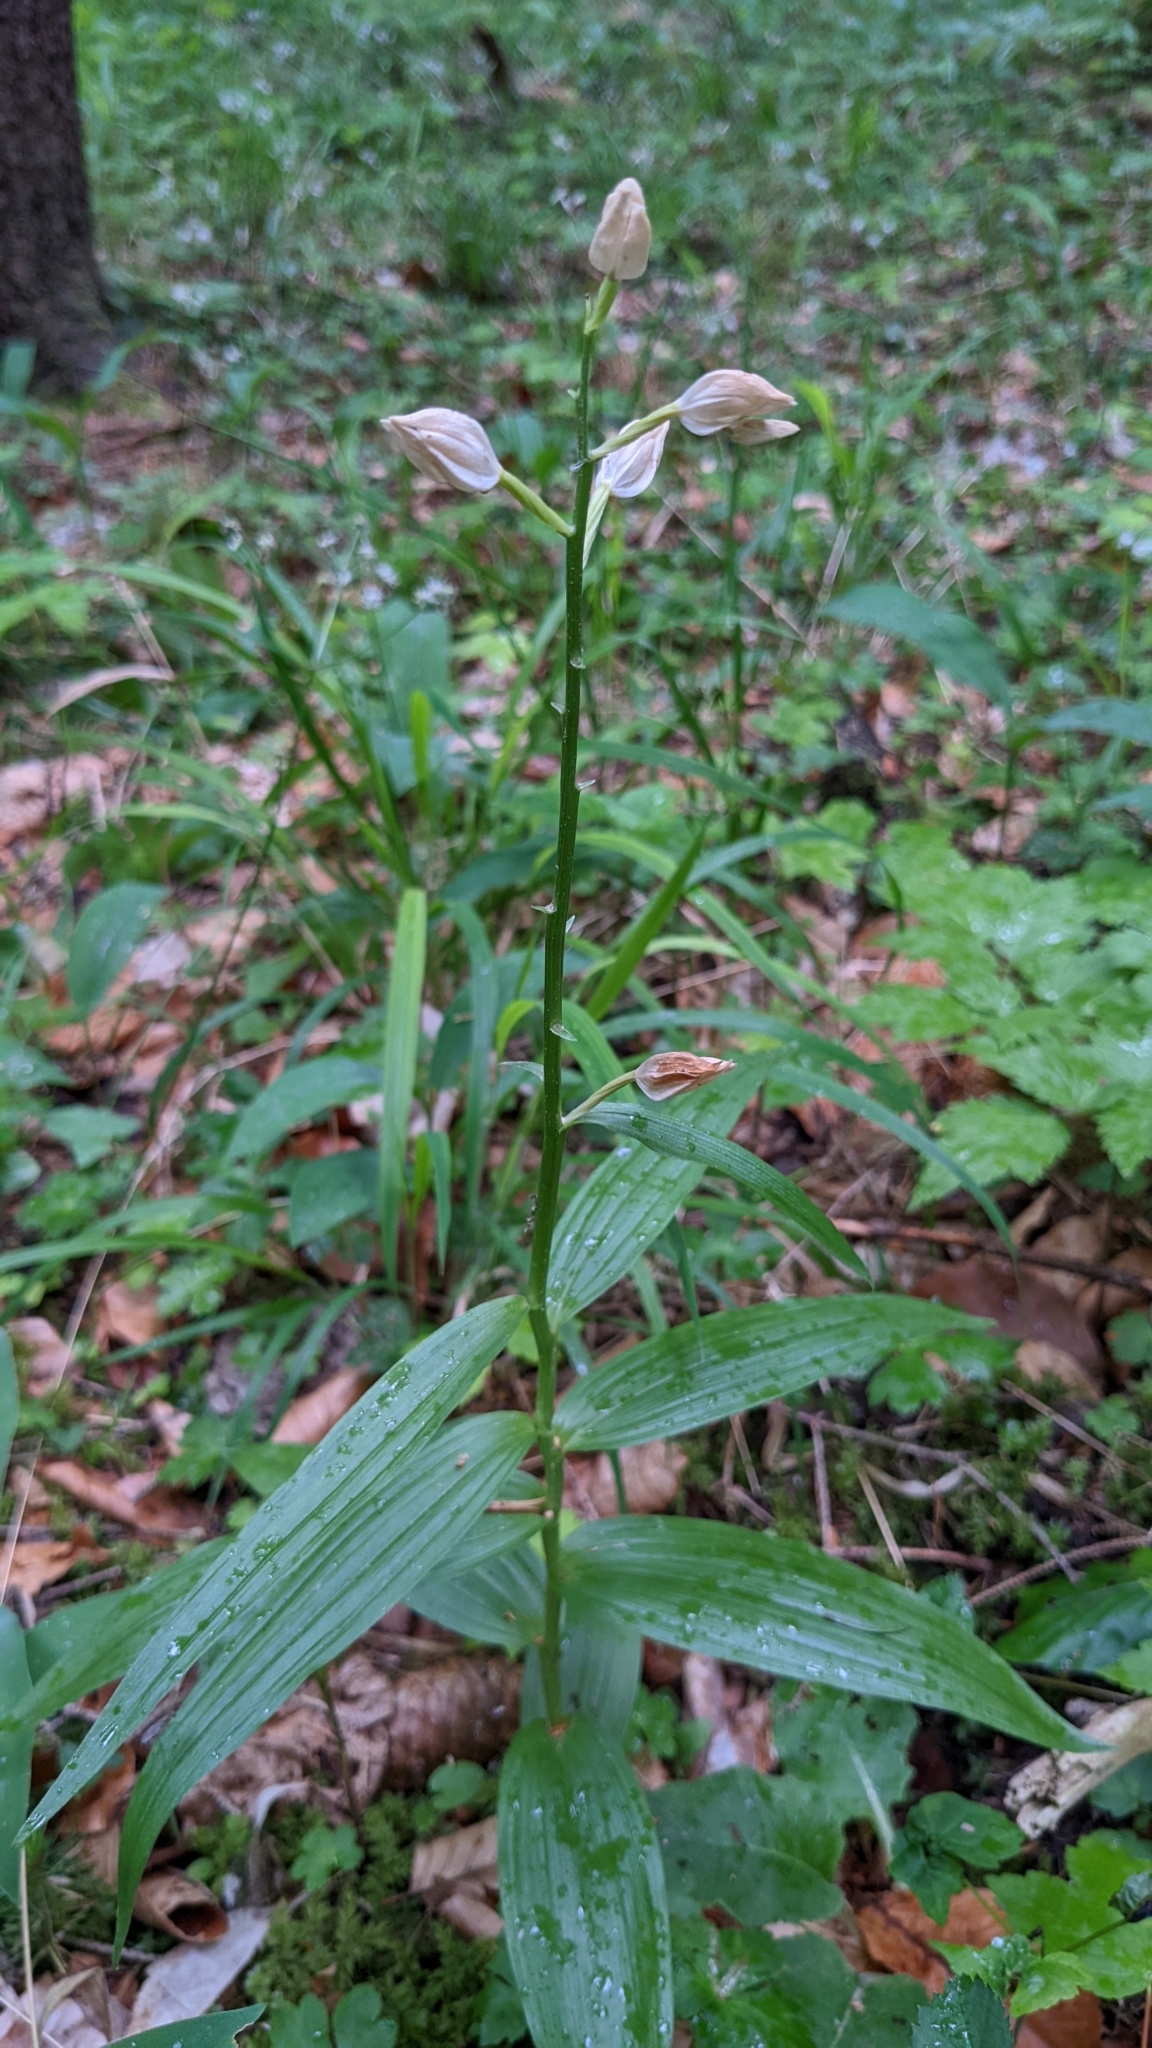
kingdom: Plantae
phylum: Tracheophyta
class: Liliopsida
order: Asparagales
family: Orchidaceae
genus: Cephalanthera
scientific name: Cephalanthera longifolia
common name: Narrow-leaved helleborine
